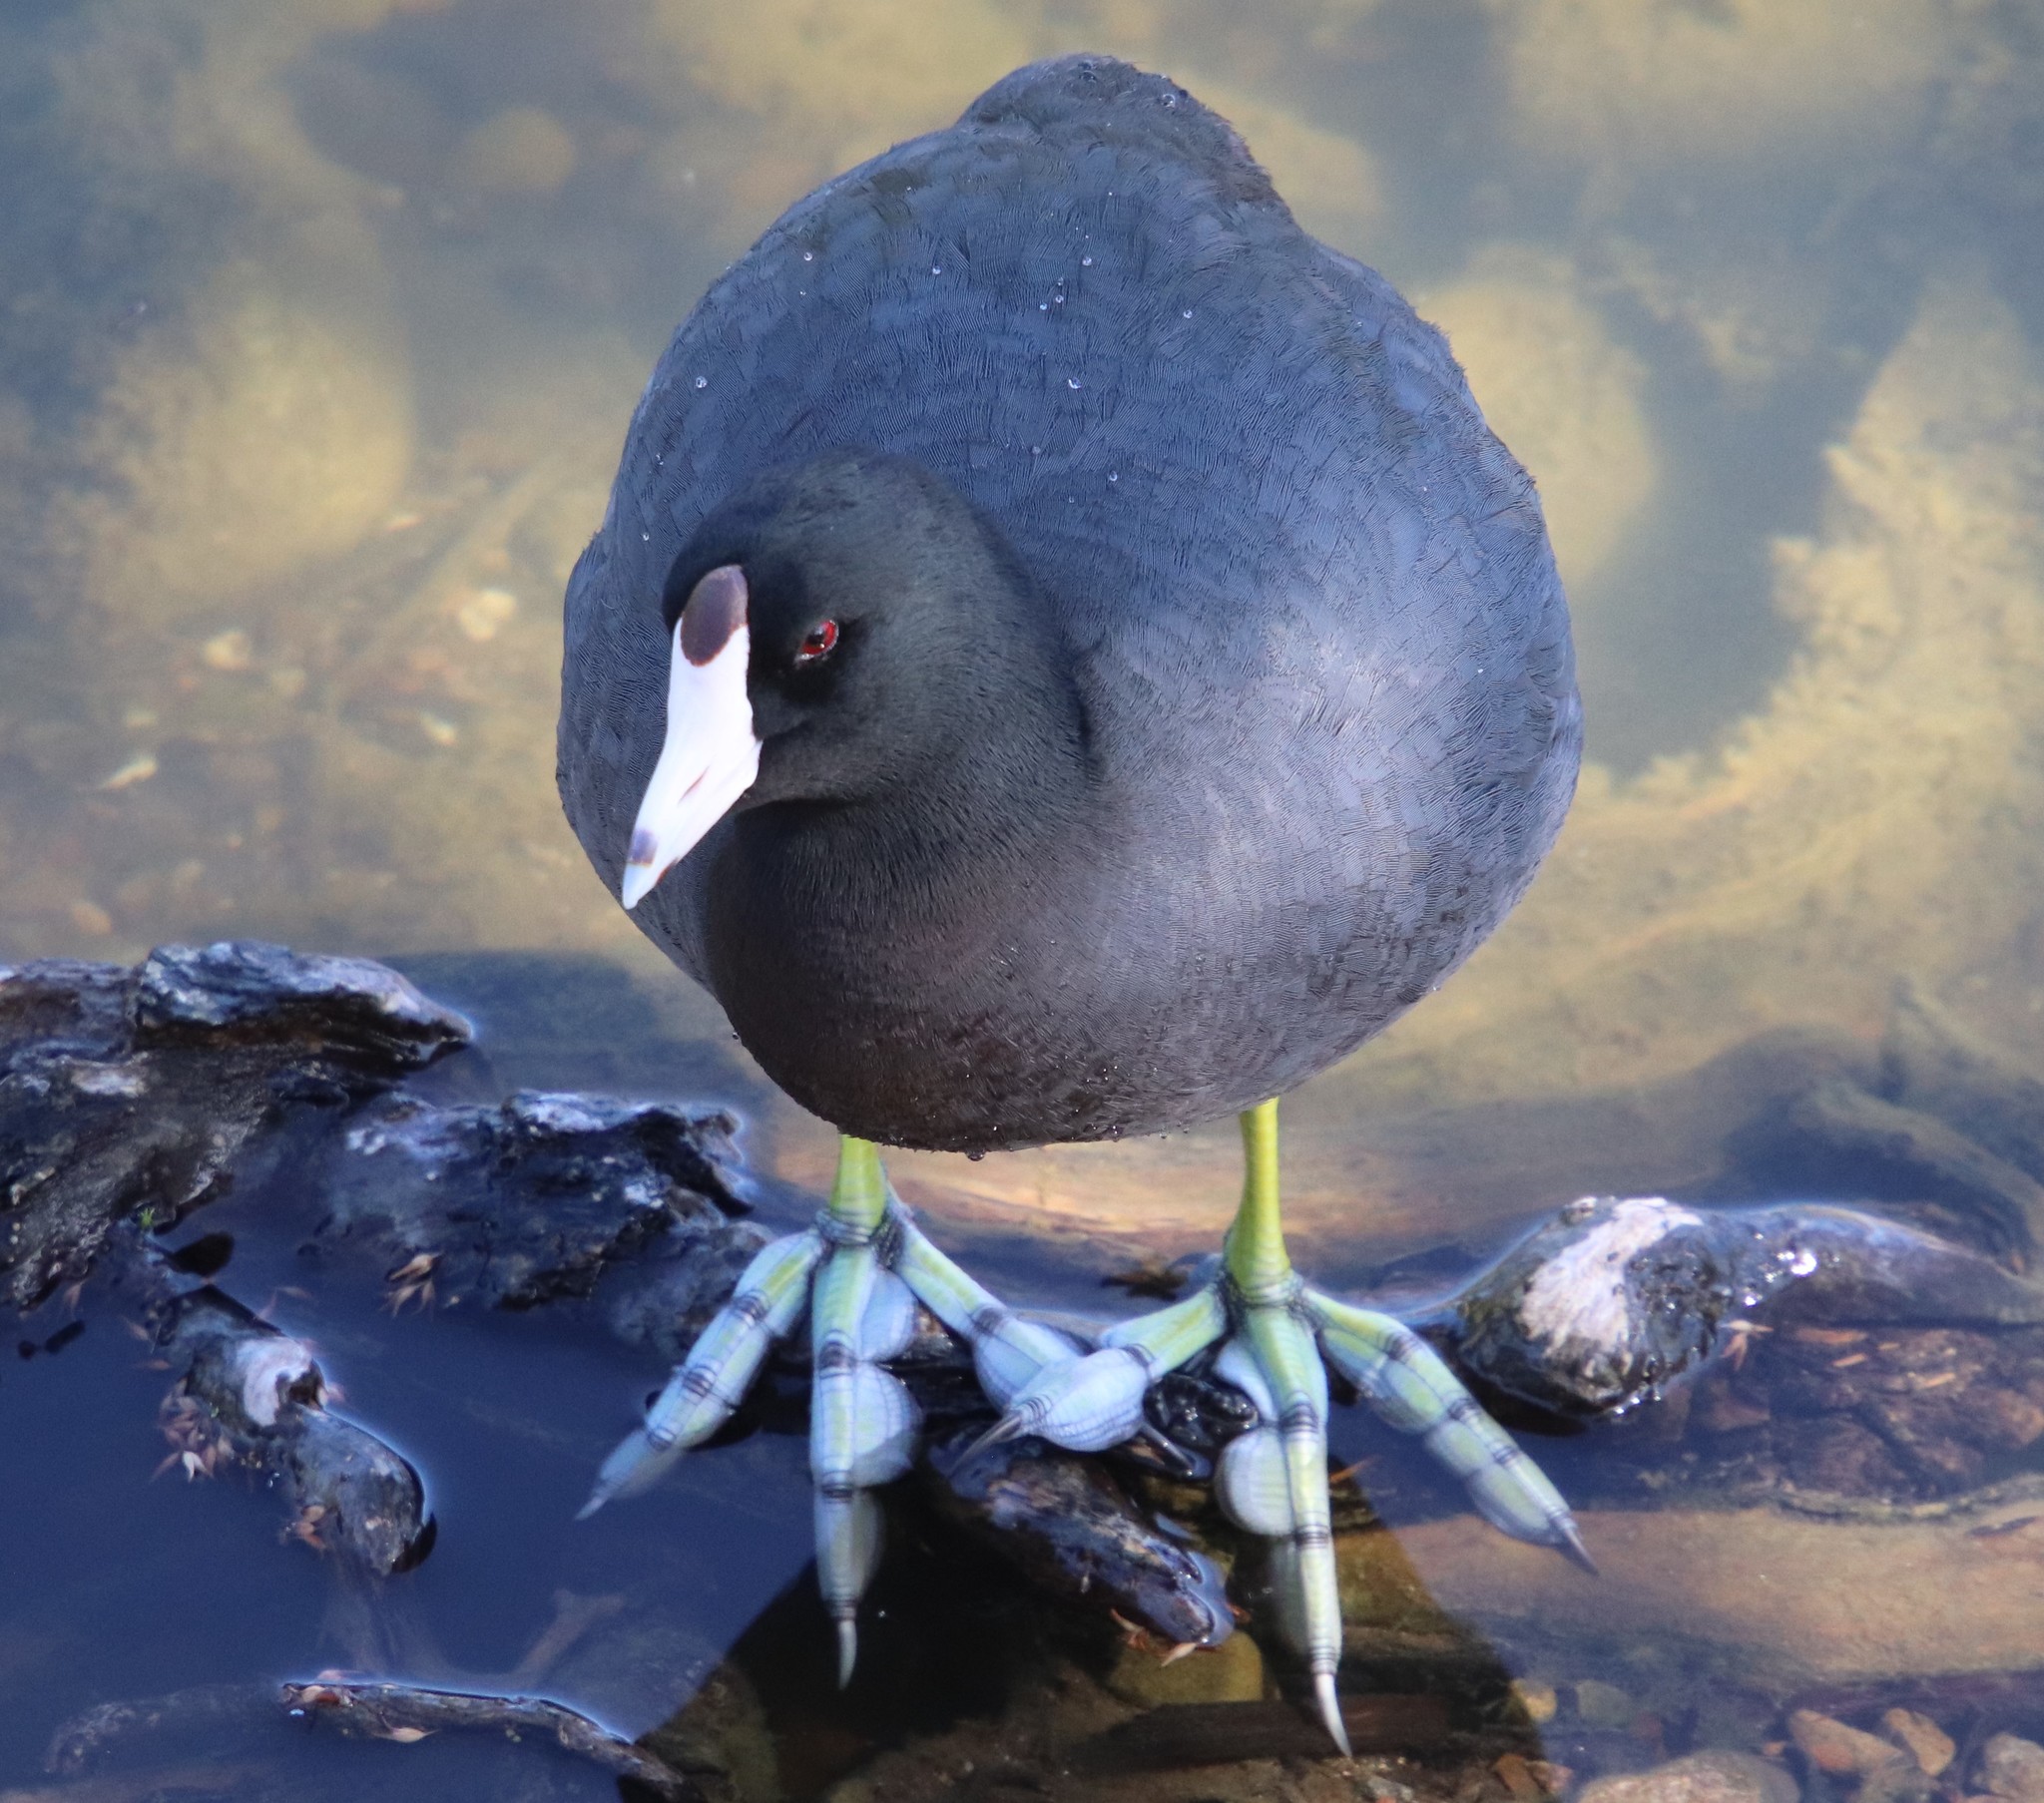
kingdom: Animalia
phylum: Chordata
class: Aves
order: Gruiformes
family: Rallidae
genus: Fulica
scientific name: Fulica americana
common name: American coot
